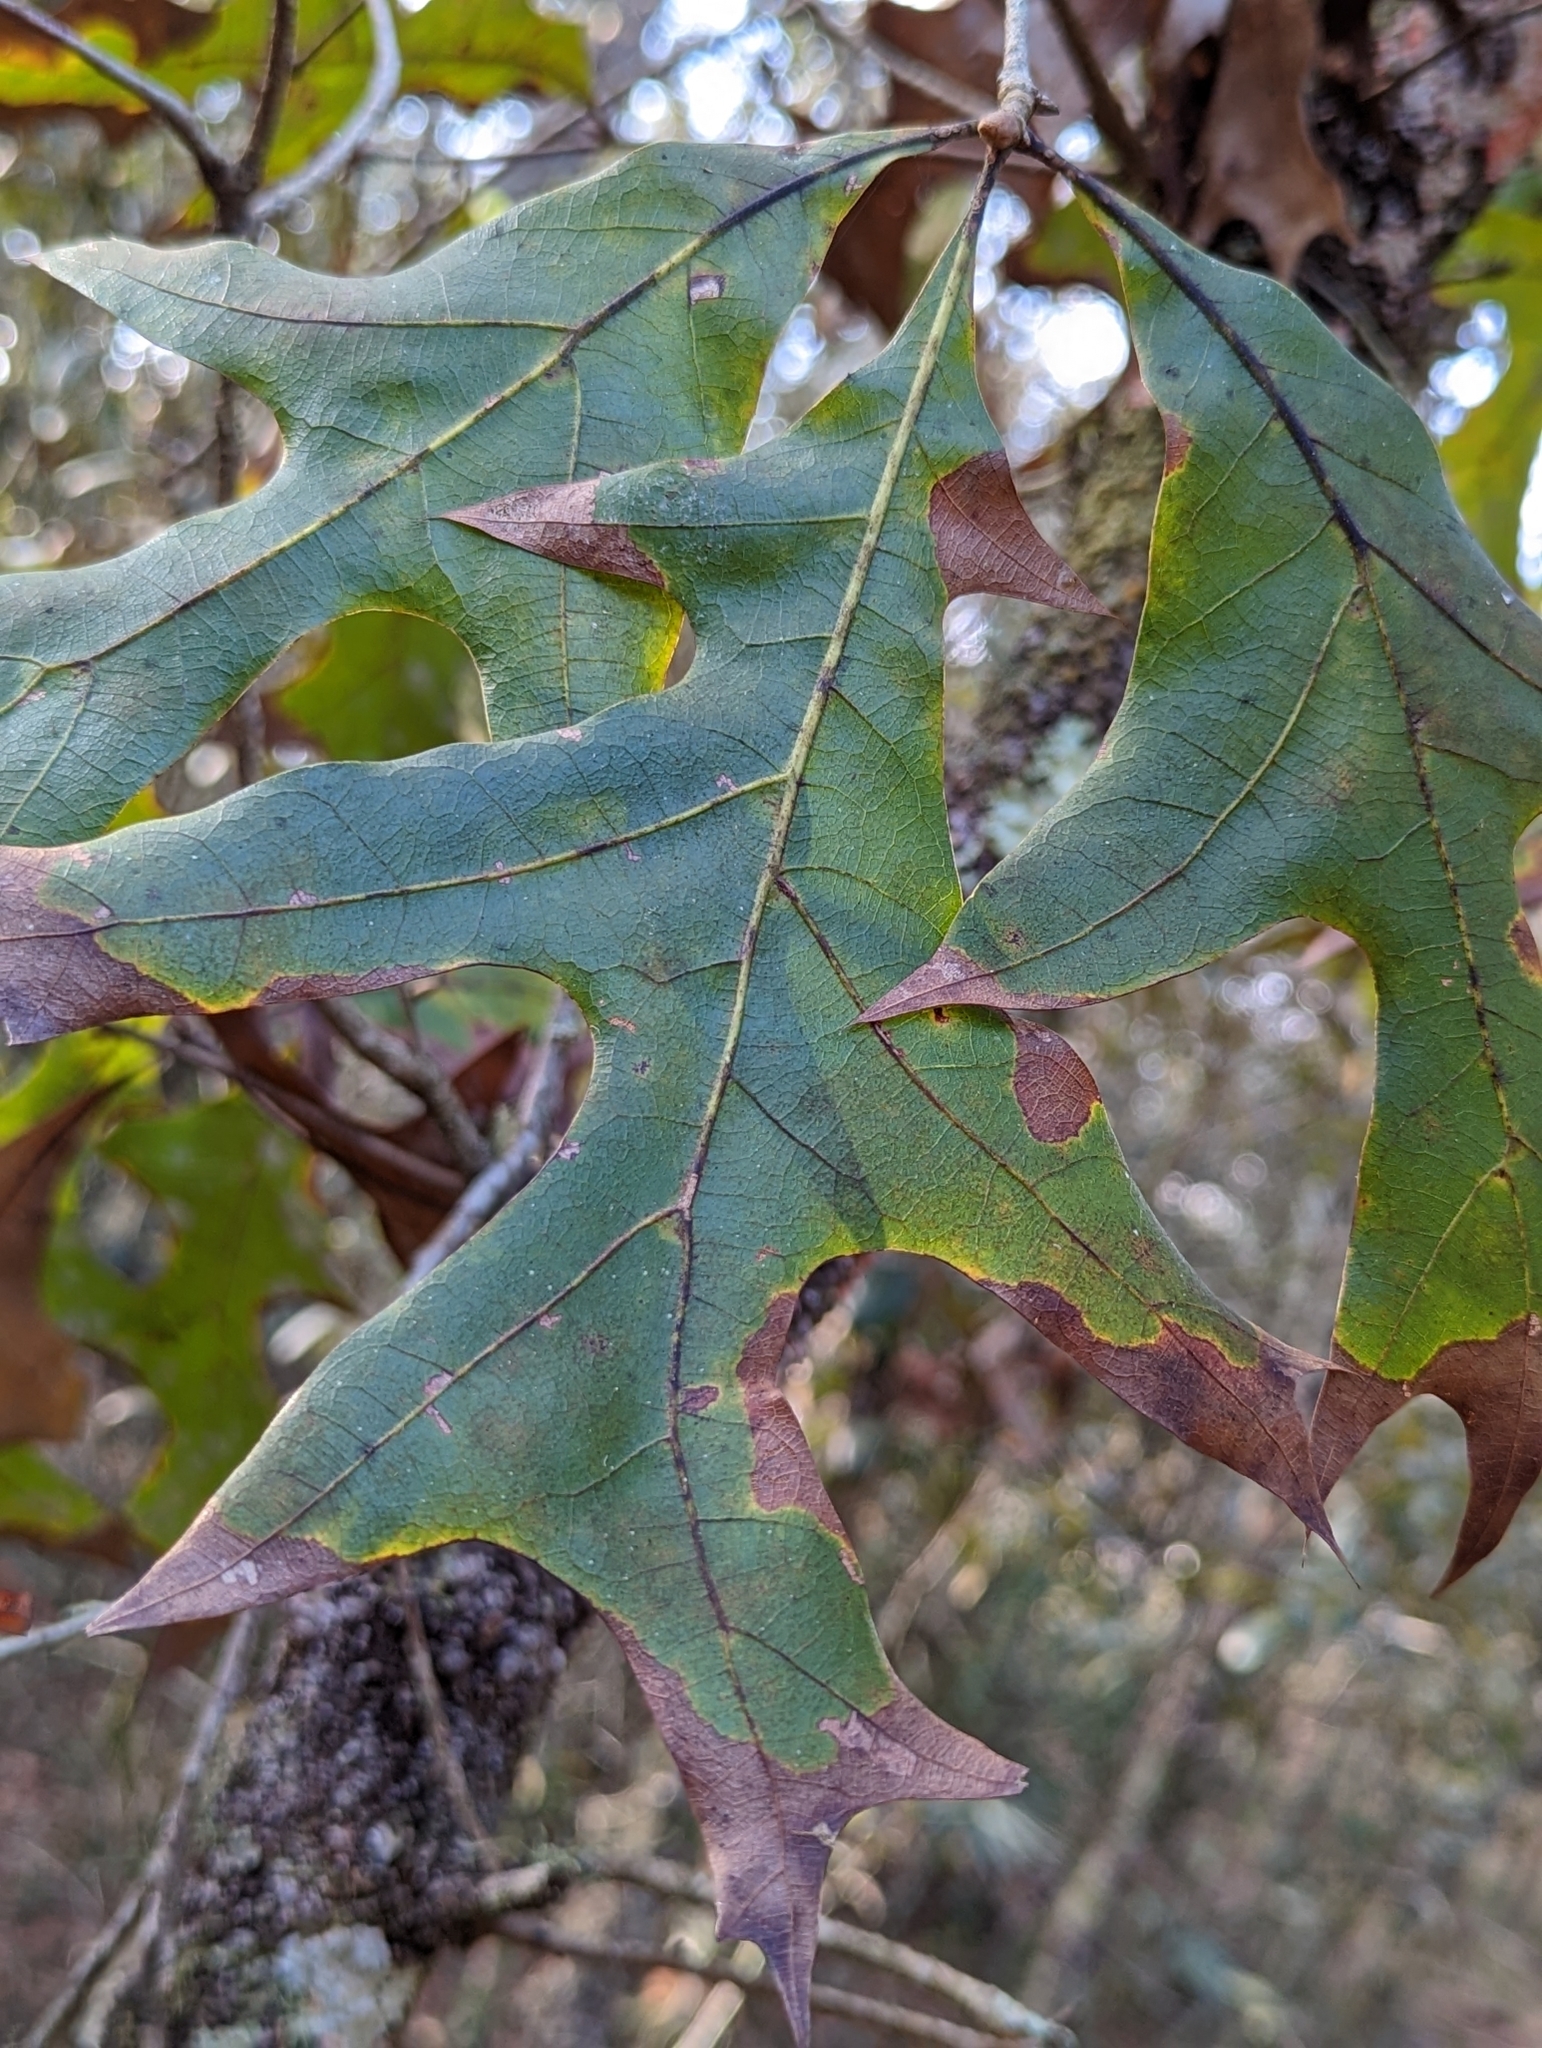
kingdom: Plantae
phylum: Tracheophyta
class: Magnoliopsida
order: Fagales
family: Fagaceae
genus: Quercus
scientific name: Quercus laevis
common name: Turkey oak
